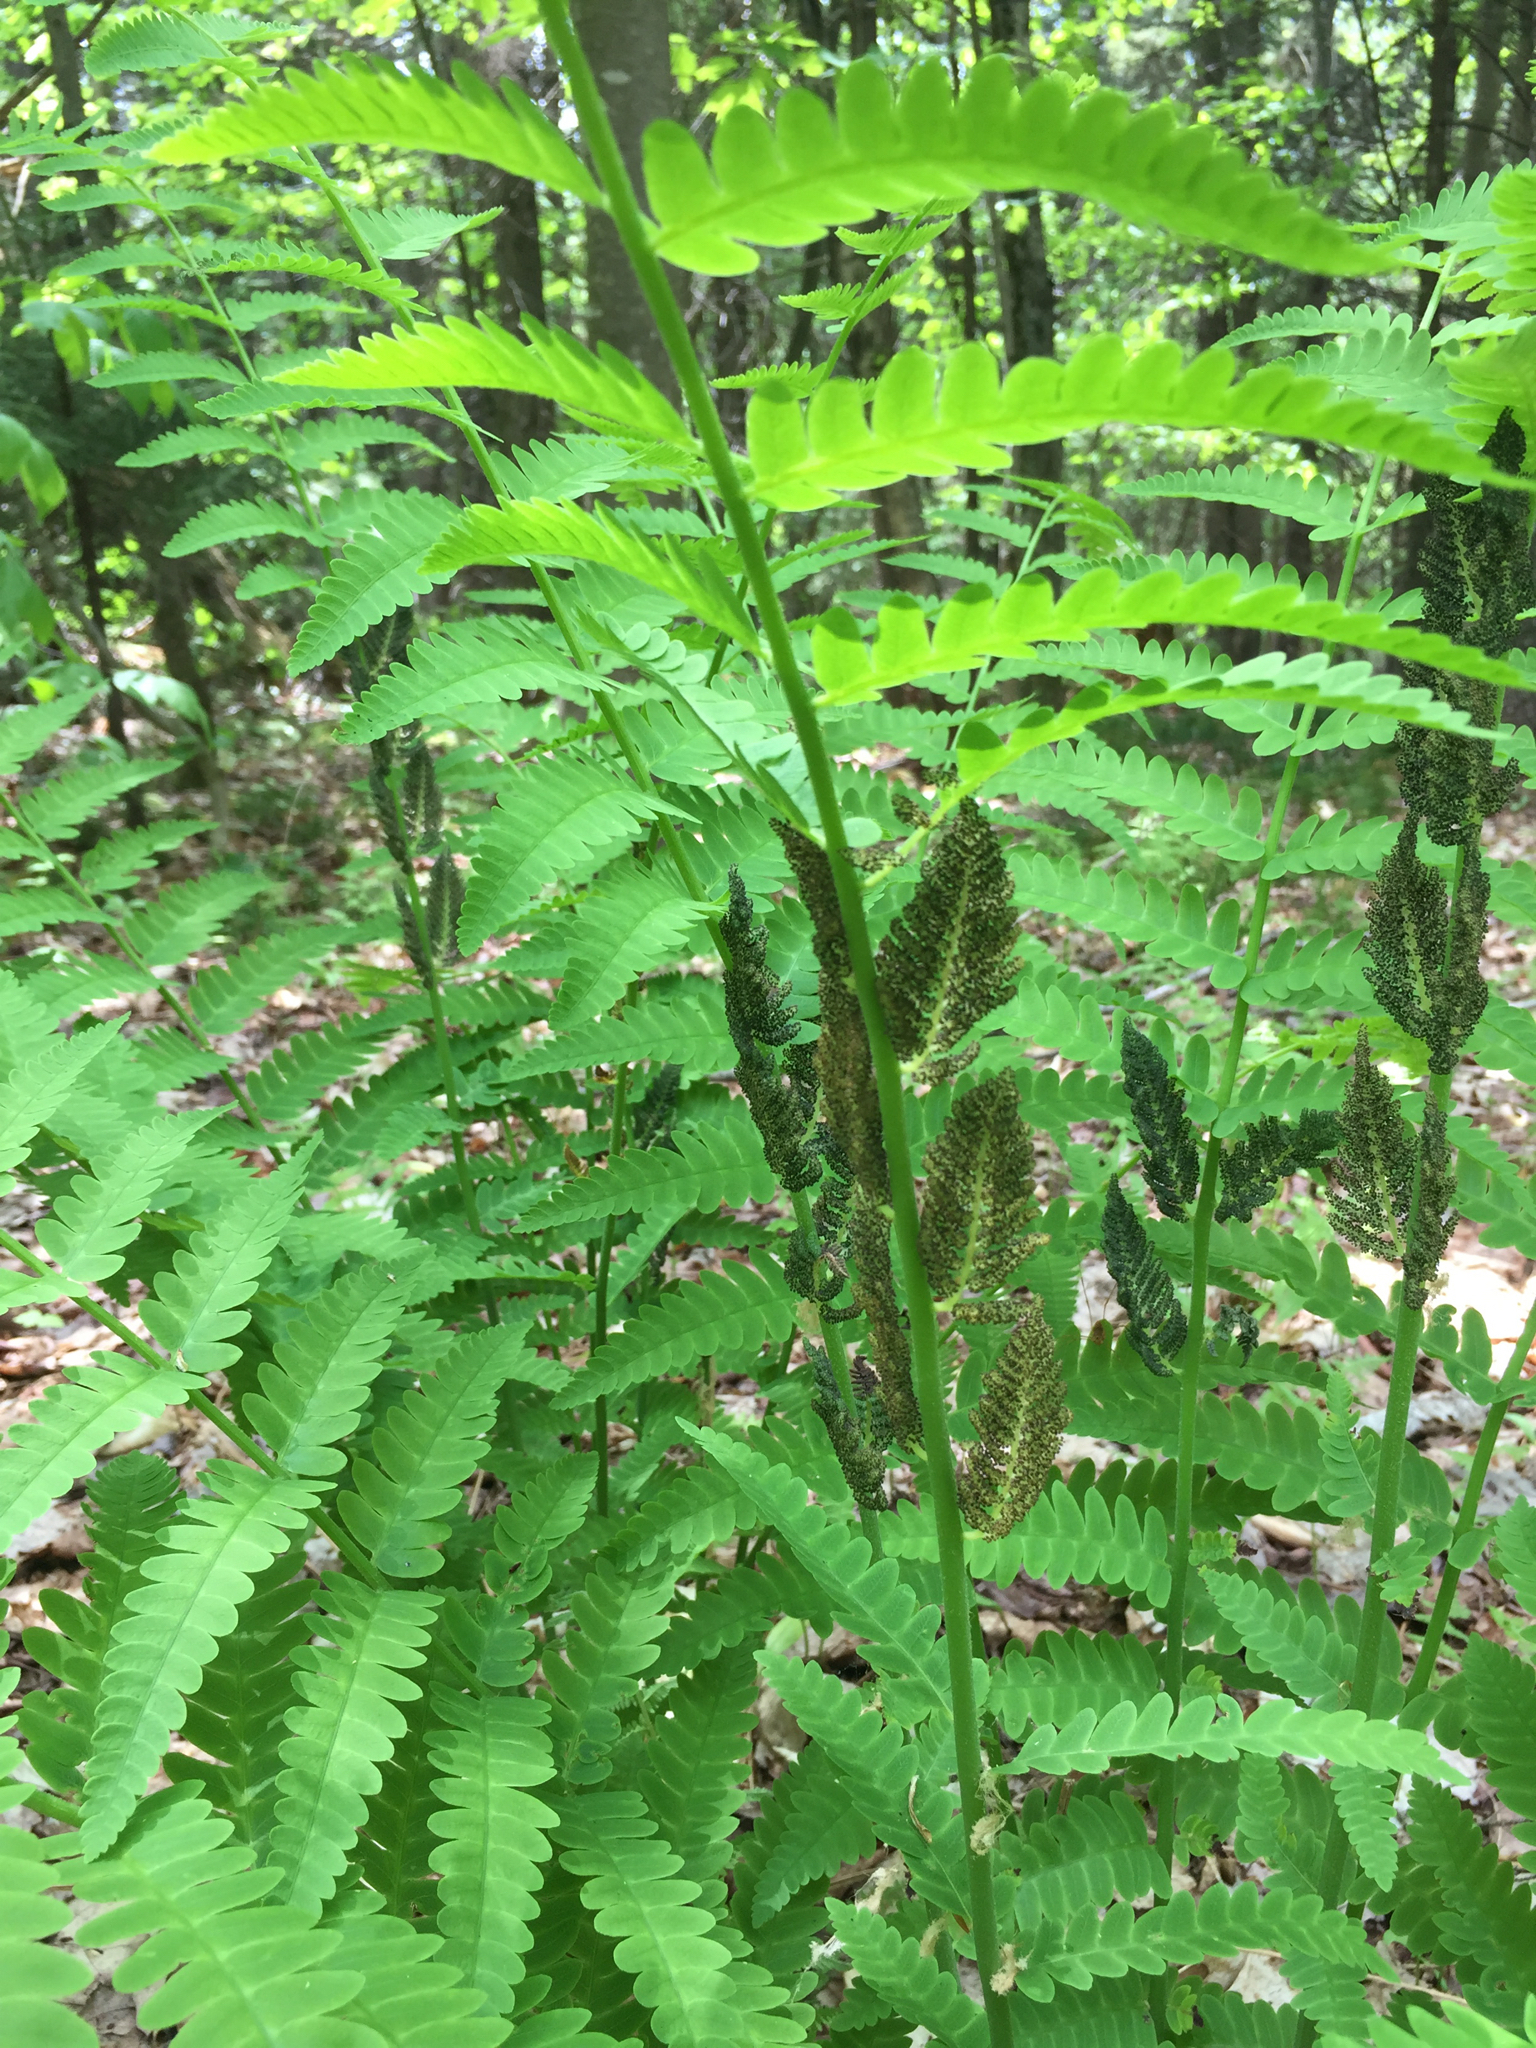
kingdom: Plantae
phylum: Tracheophyta
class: Polypodiopsida
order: Osmundales
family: Osmundaceae
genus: Claytosmunda
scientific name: Claytosmunda claytoniana
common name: Clayton's fern
